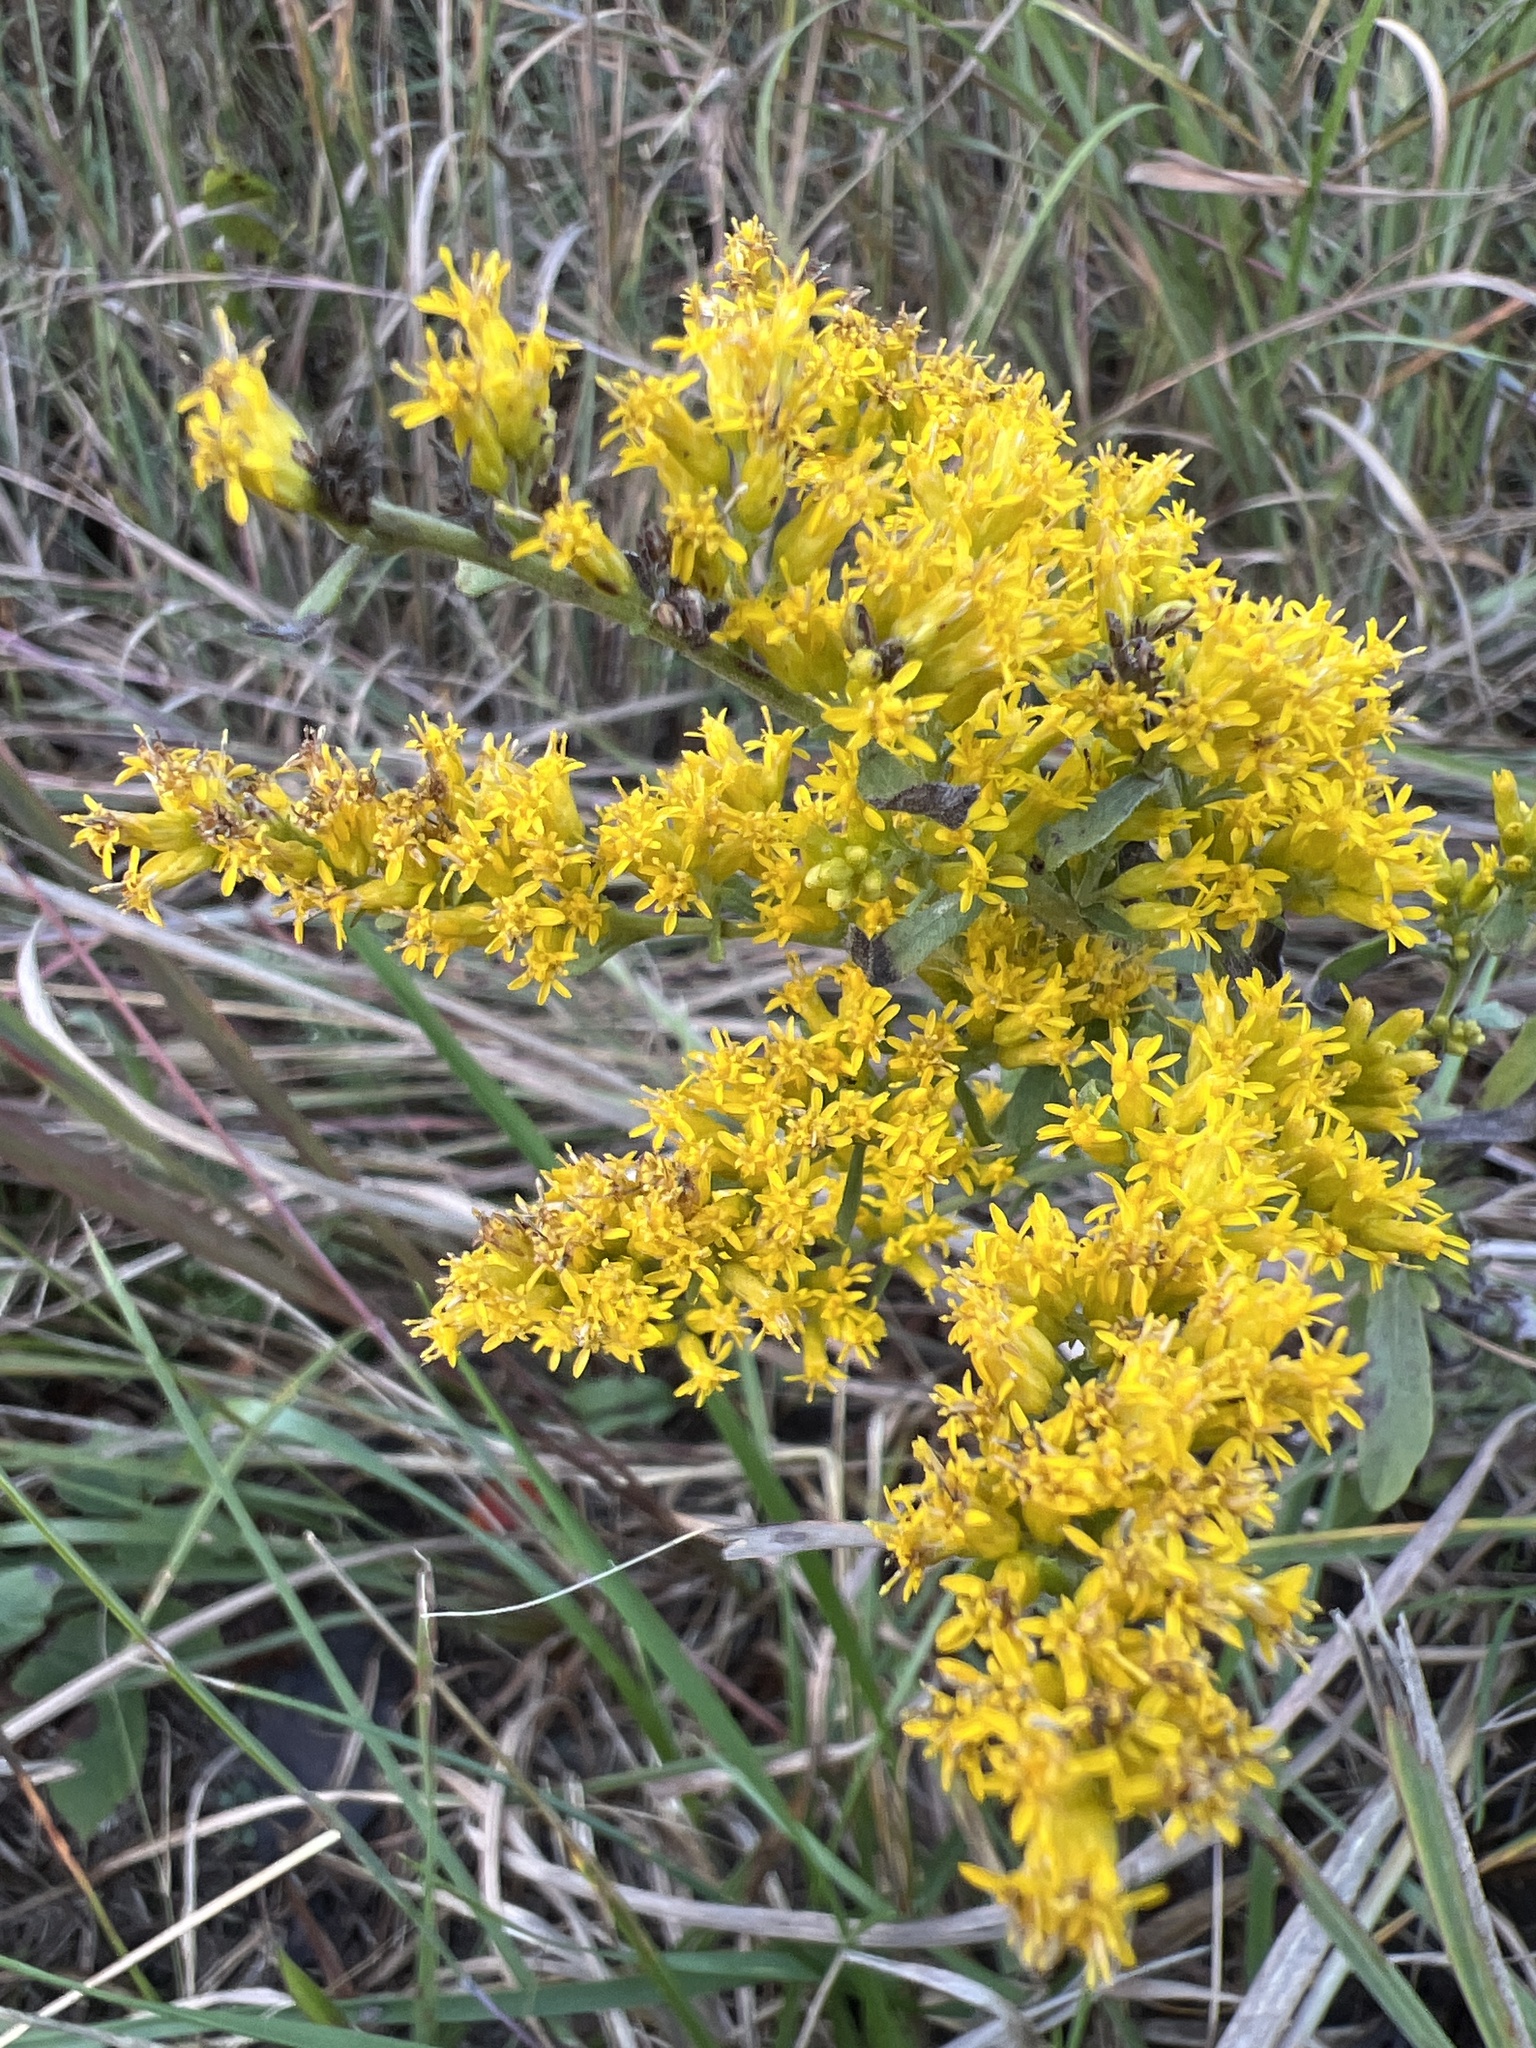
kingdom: Plantae
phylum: Tracheophyta
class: Magnoliopsida
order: Asterales
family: Asteraceae
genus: Solidago
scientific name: Solidago nemoralis
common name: Grey goldenrod
